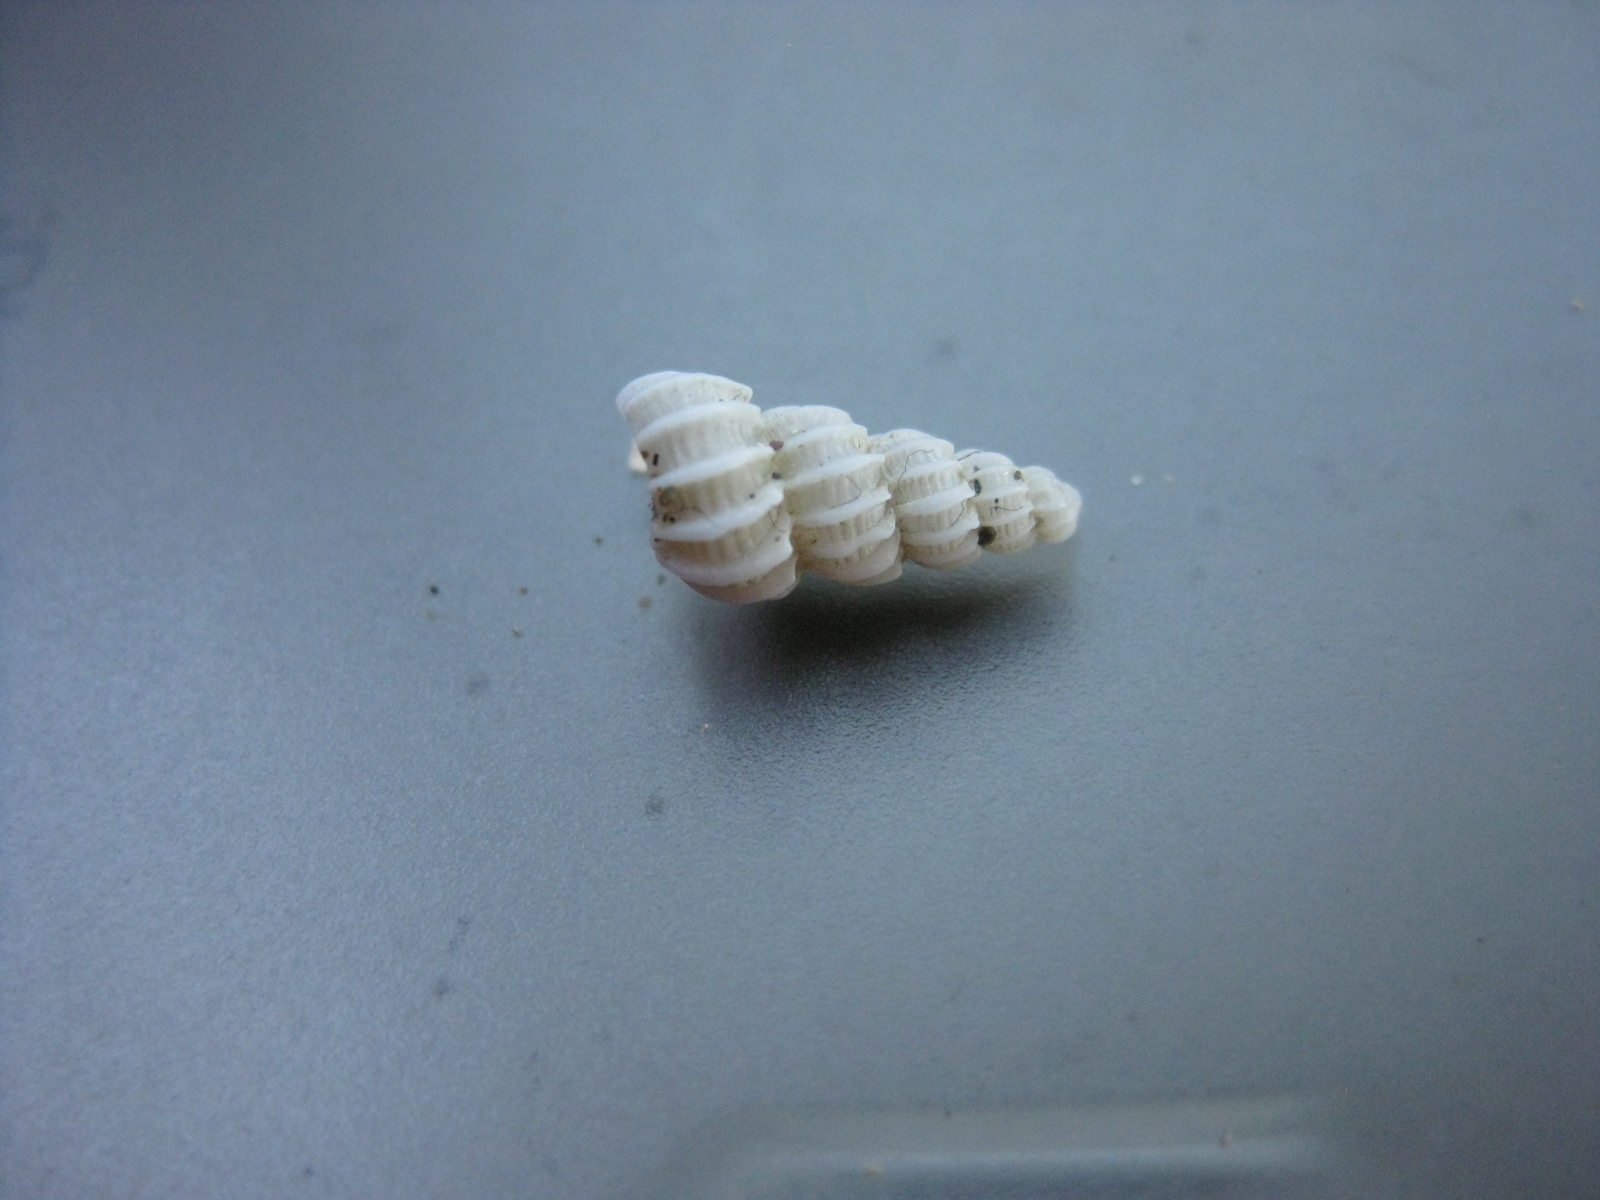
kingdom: Animalia
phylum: Mollusca
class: Gastropoda
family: Epitoniidae
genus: Cirsotrema
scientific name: Cirsotrema zelebori
